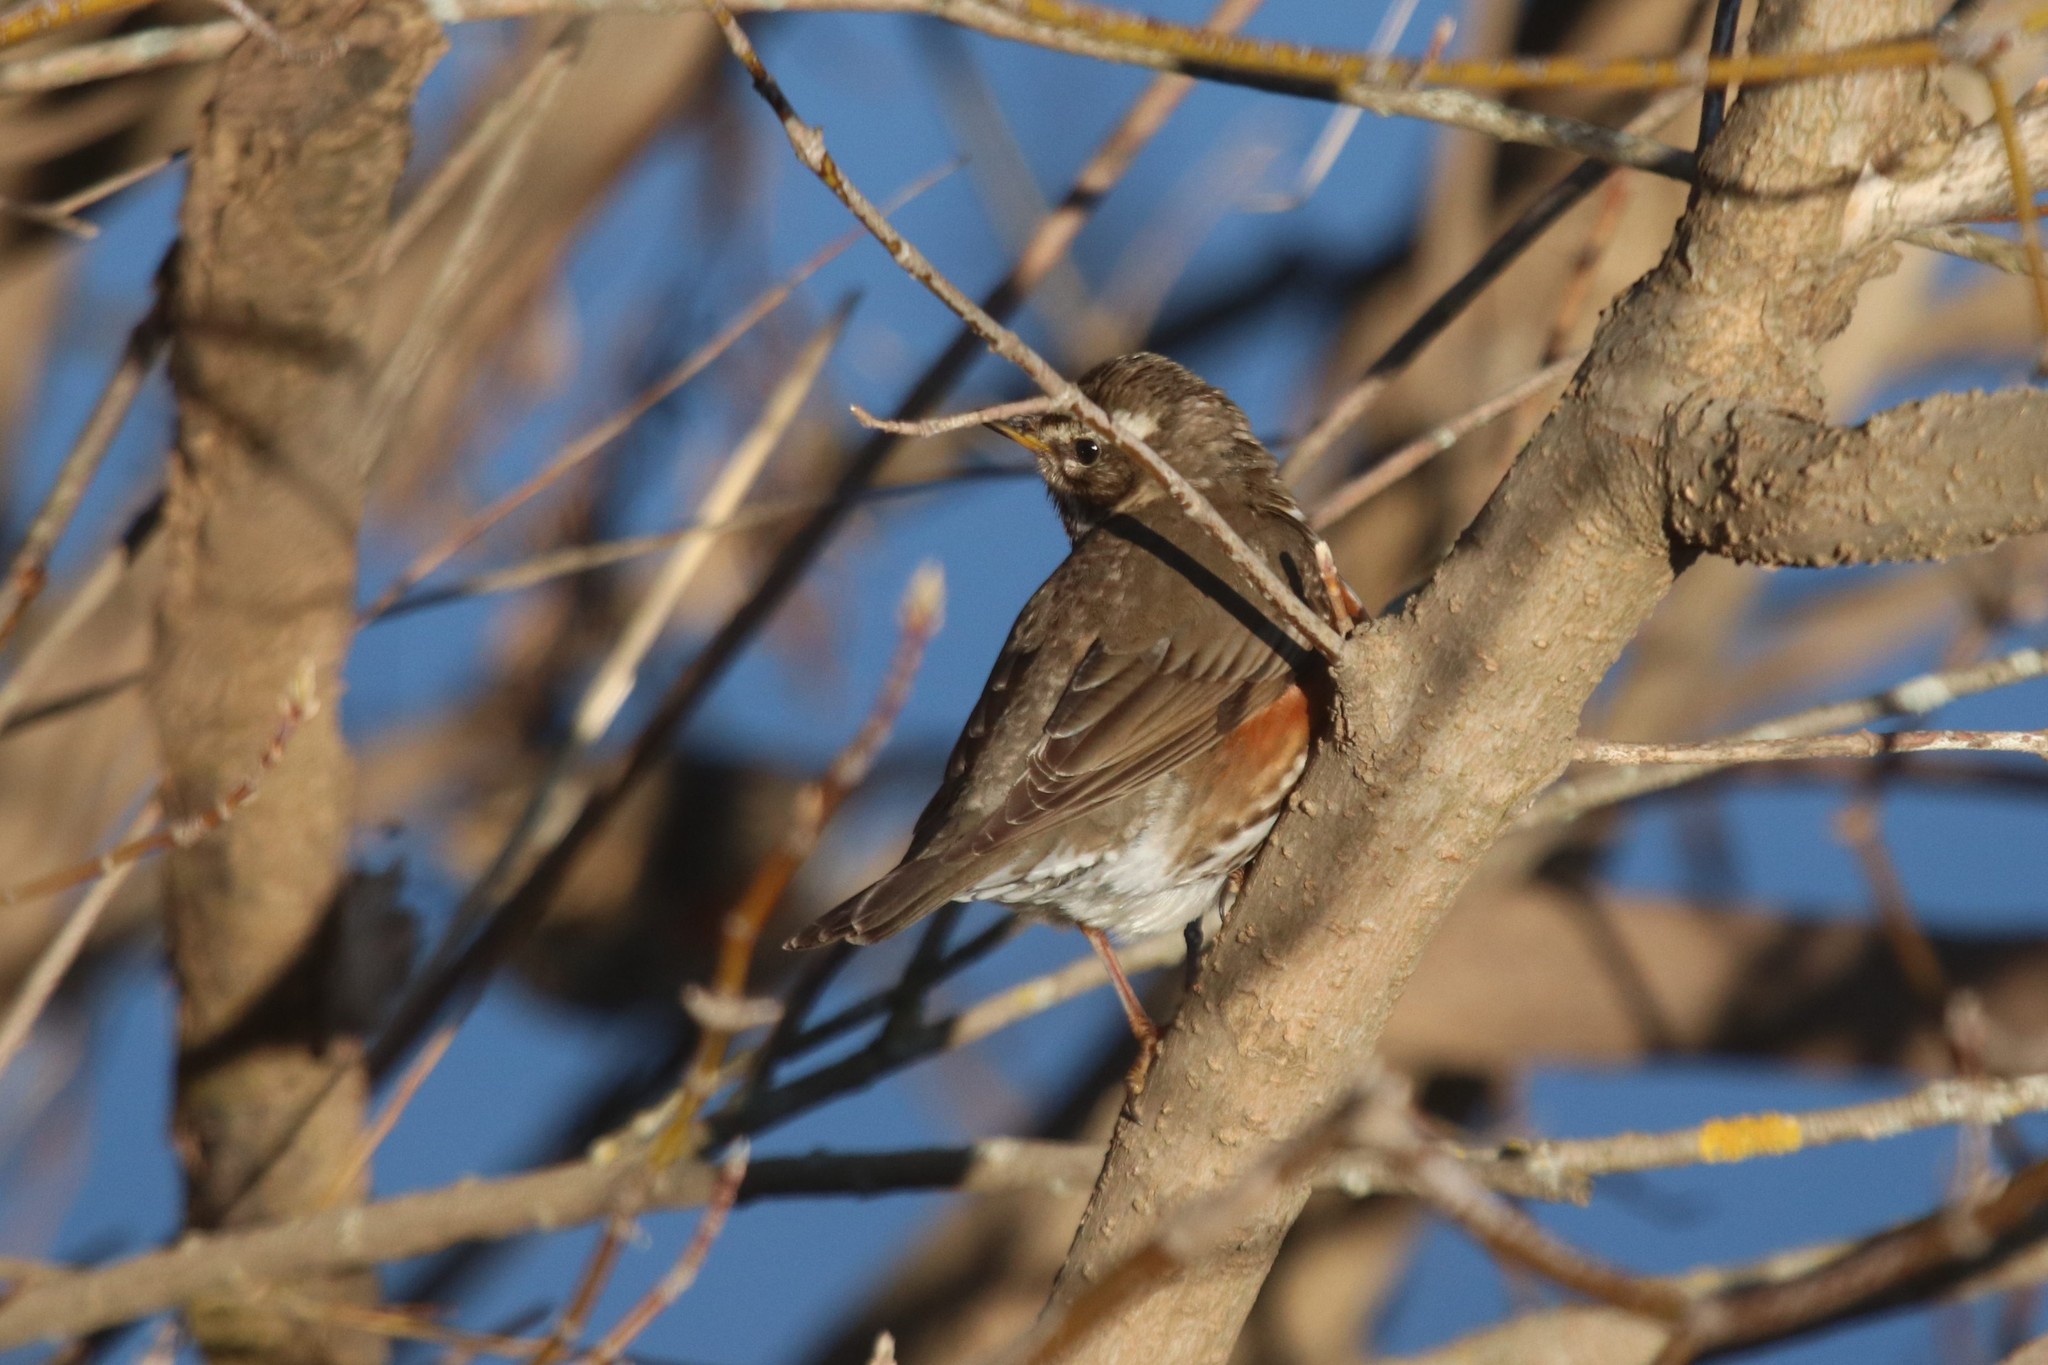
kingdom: Animalia
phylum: Chordata
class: Aves
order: Passeriformes
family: Turdidae
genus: Turdus
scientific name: Turdus iliacus
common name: Redwing
